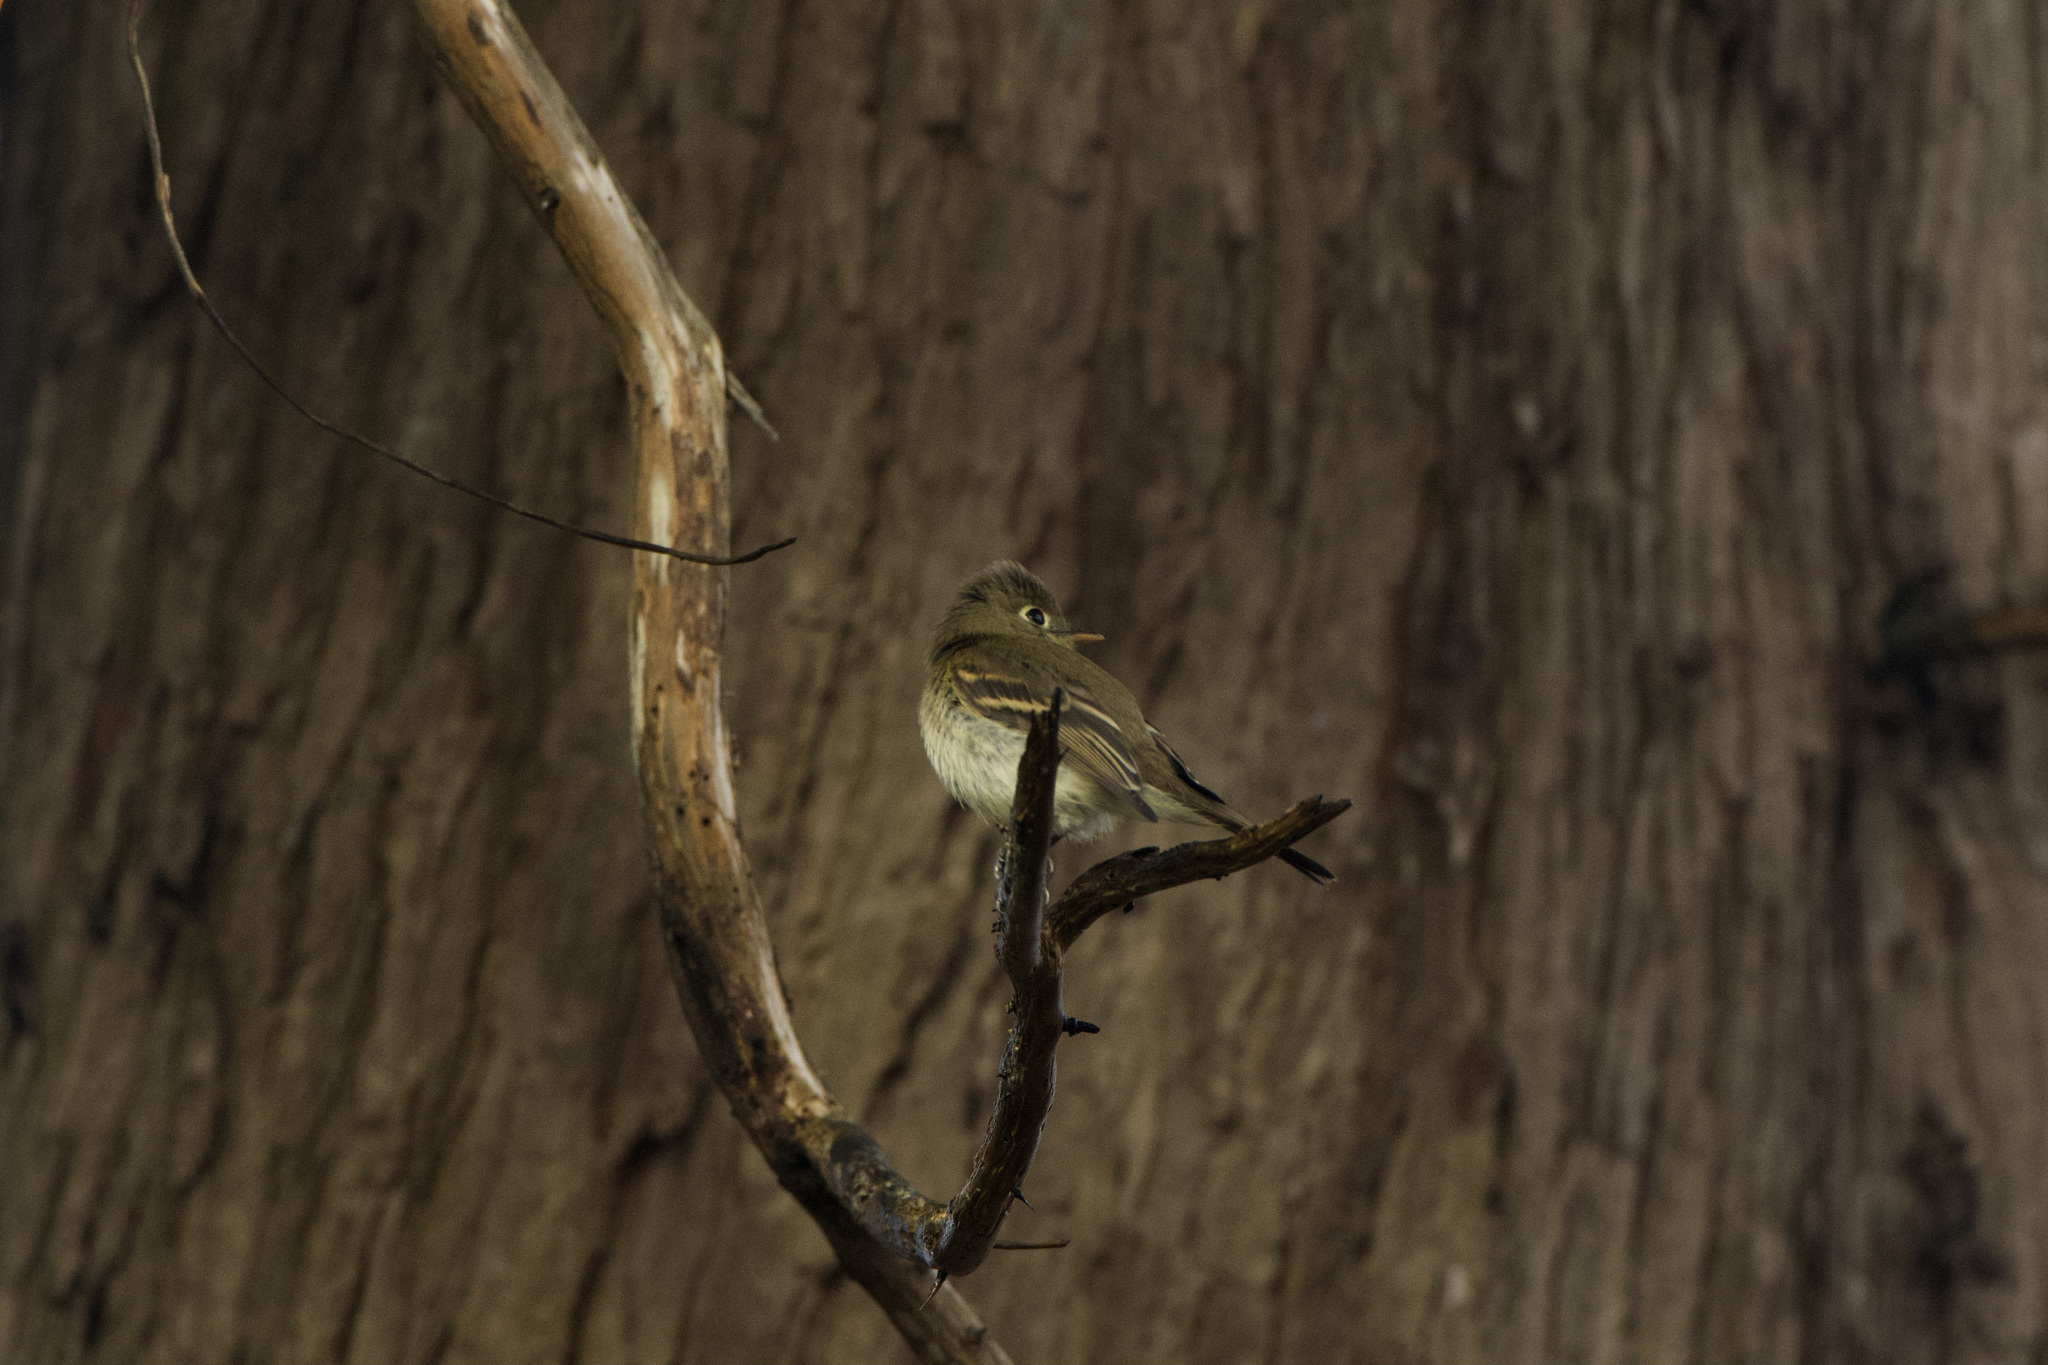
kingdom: Animalia
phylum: Chordata
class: Aves
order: Passeriformes
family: Tyrannidae
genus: Empidonax
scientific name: Empidonax difficilis
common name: Pacific-slope flycatcher
